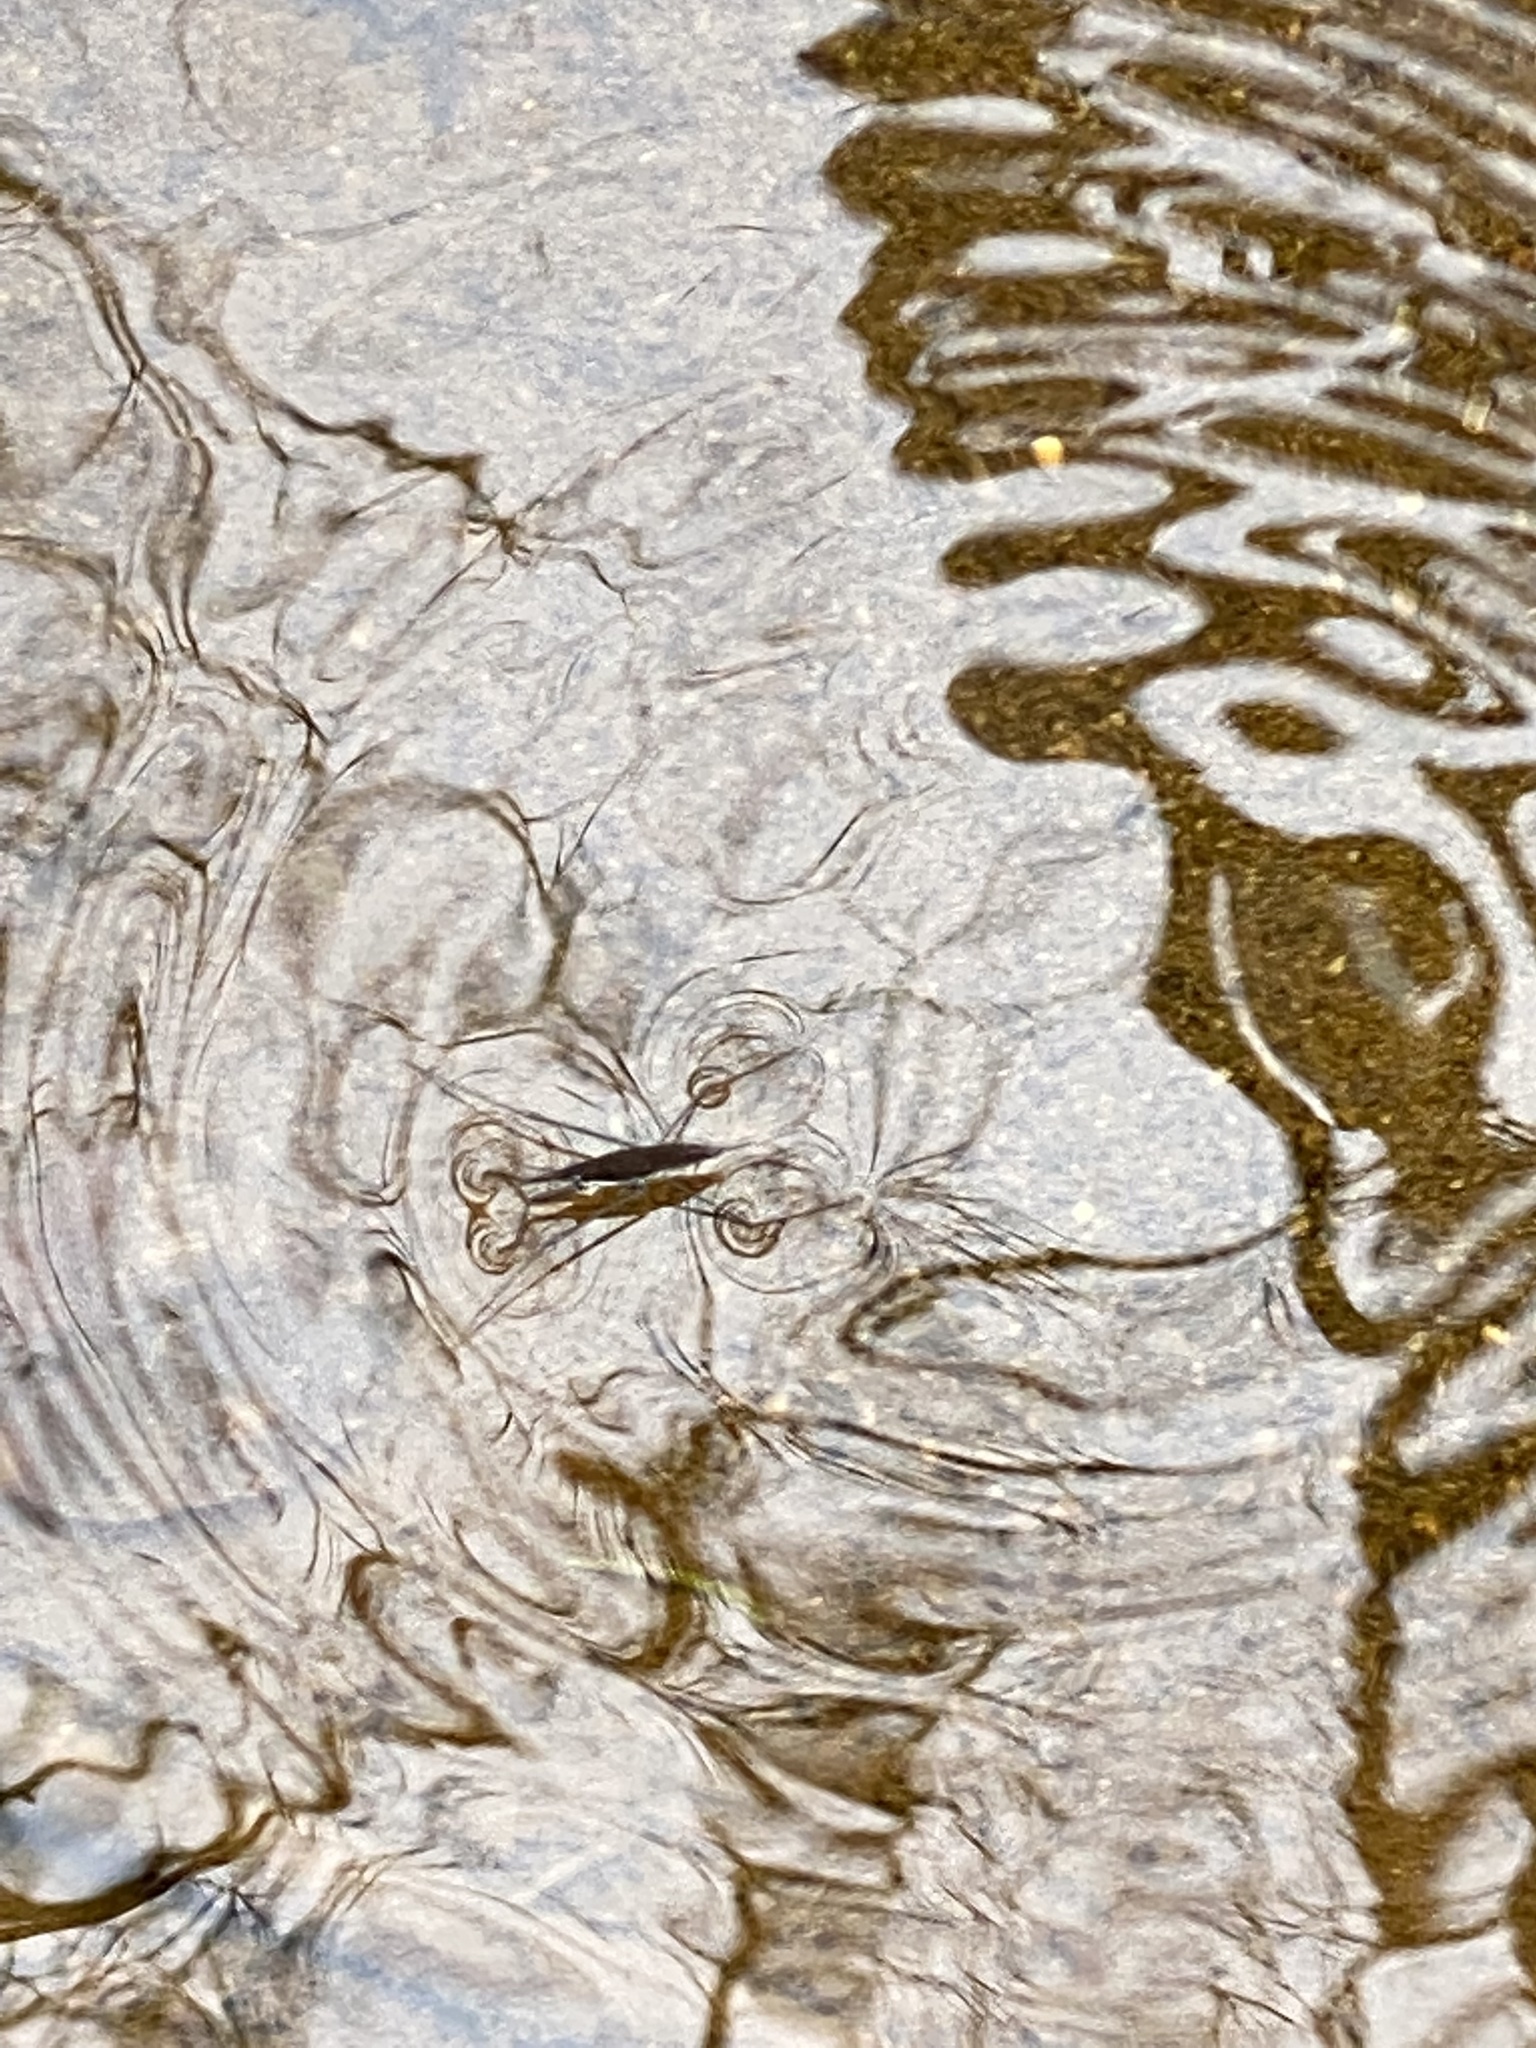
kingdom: Animalia
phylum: Arthropoda
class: Insecta
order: Hemiptera
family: Gerridae
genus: Aquarius
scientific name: Aquarius remigis
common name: Common water strider
